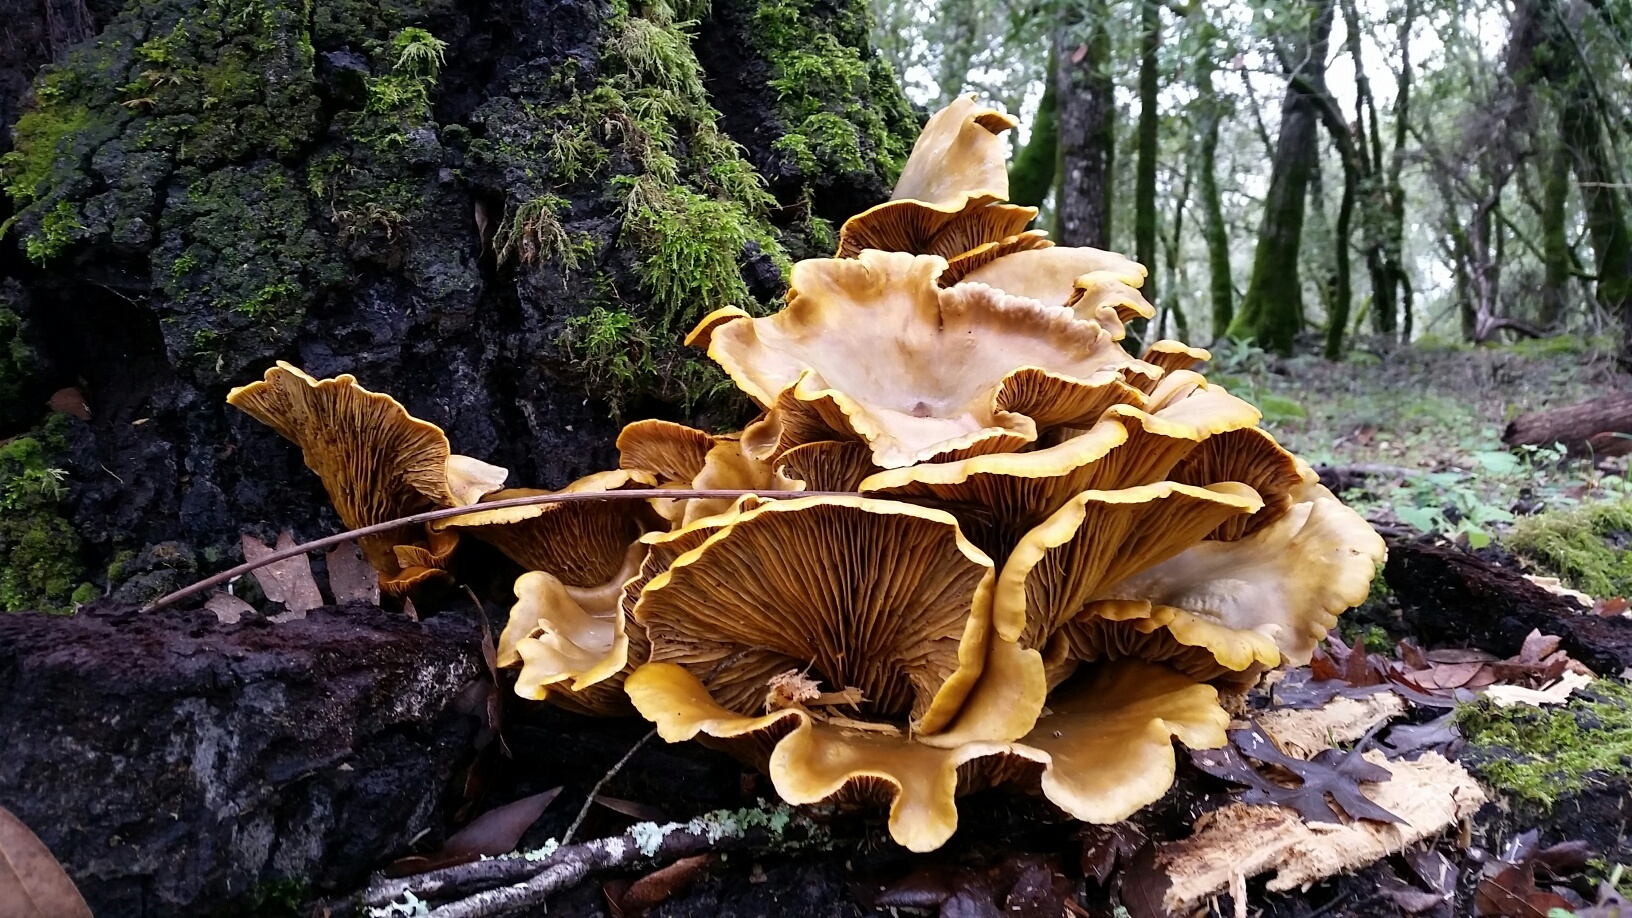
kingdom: Fungi
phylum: Basidiomycota
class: Agaricomycetes
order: Agaricales
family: Omphalotaceae
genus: Omphalotus
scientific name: Omphalotus olivascens
